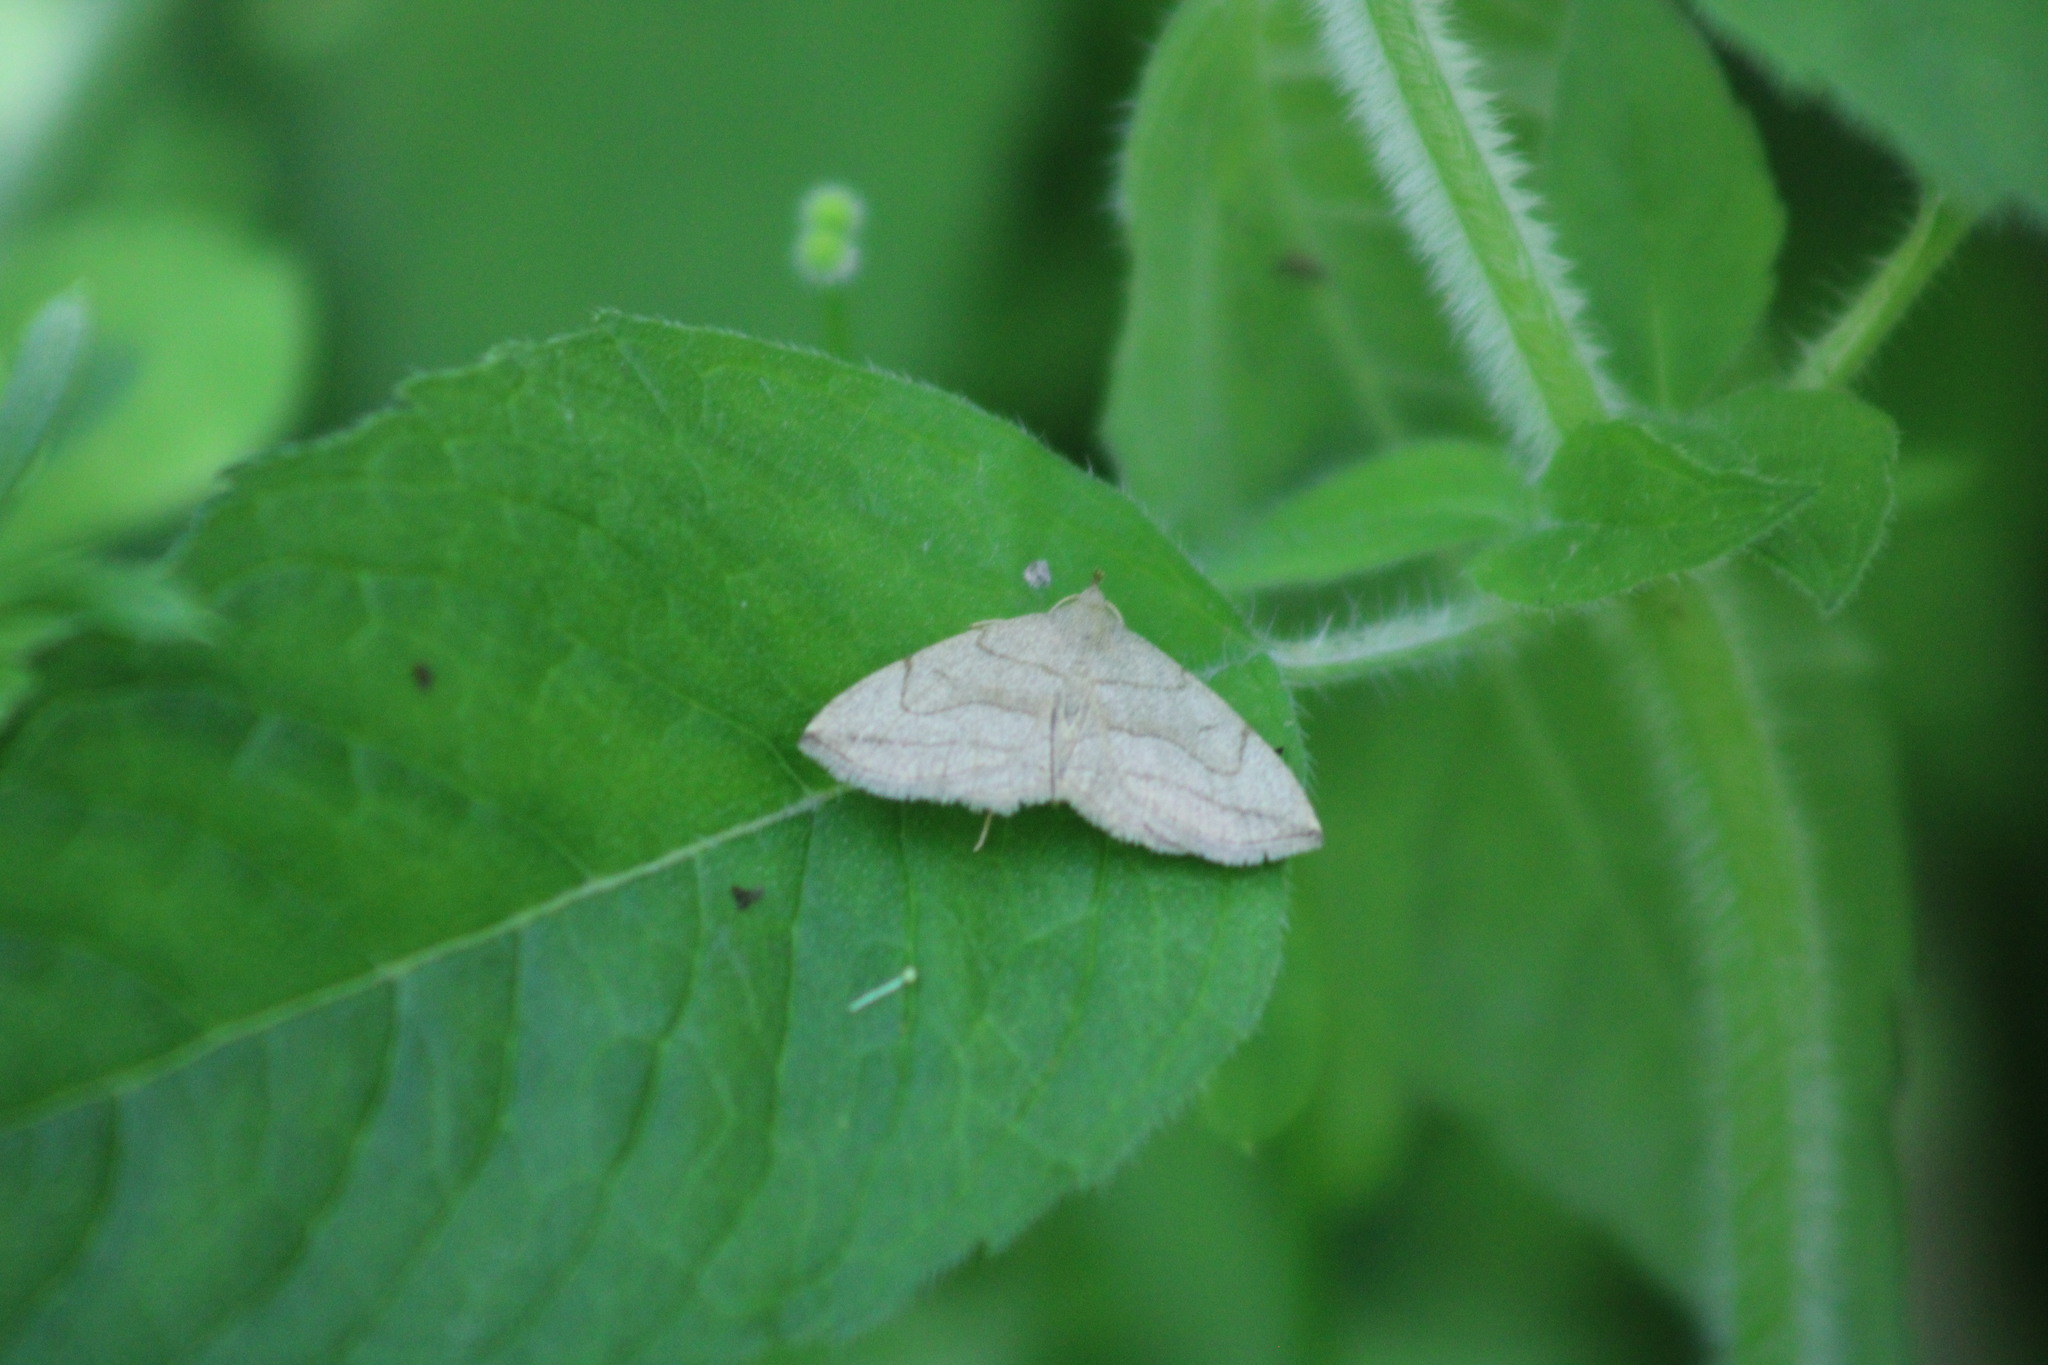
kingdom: Animalia
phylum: Arthropoda
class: Insecta
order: Lepidoptera
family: Erebidae
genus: Zanclognatha
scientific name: Zanclognatha pedipilalis
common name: Grayish fan-foot
